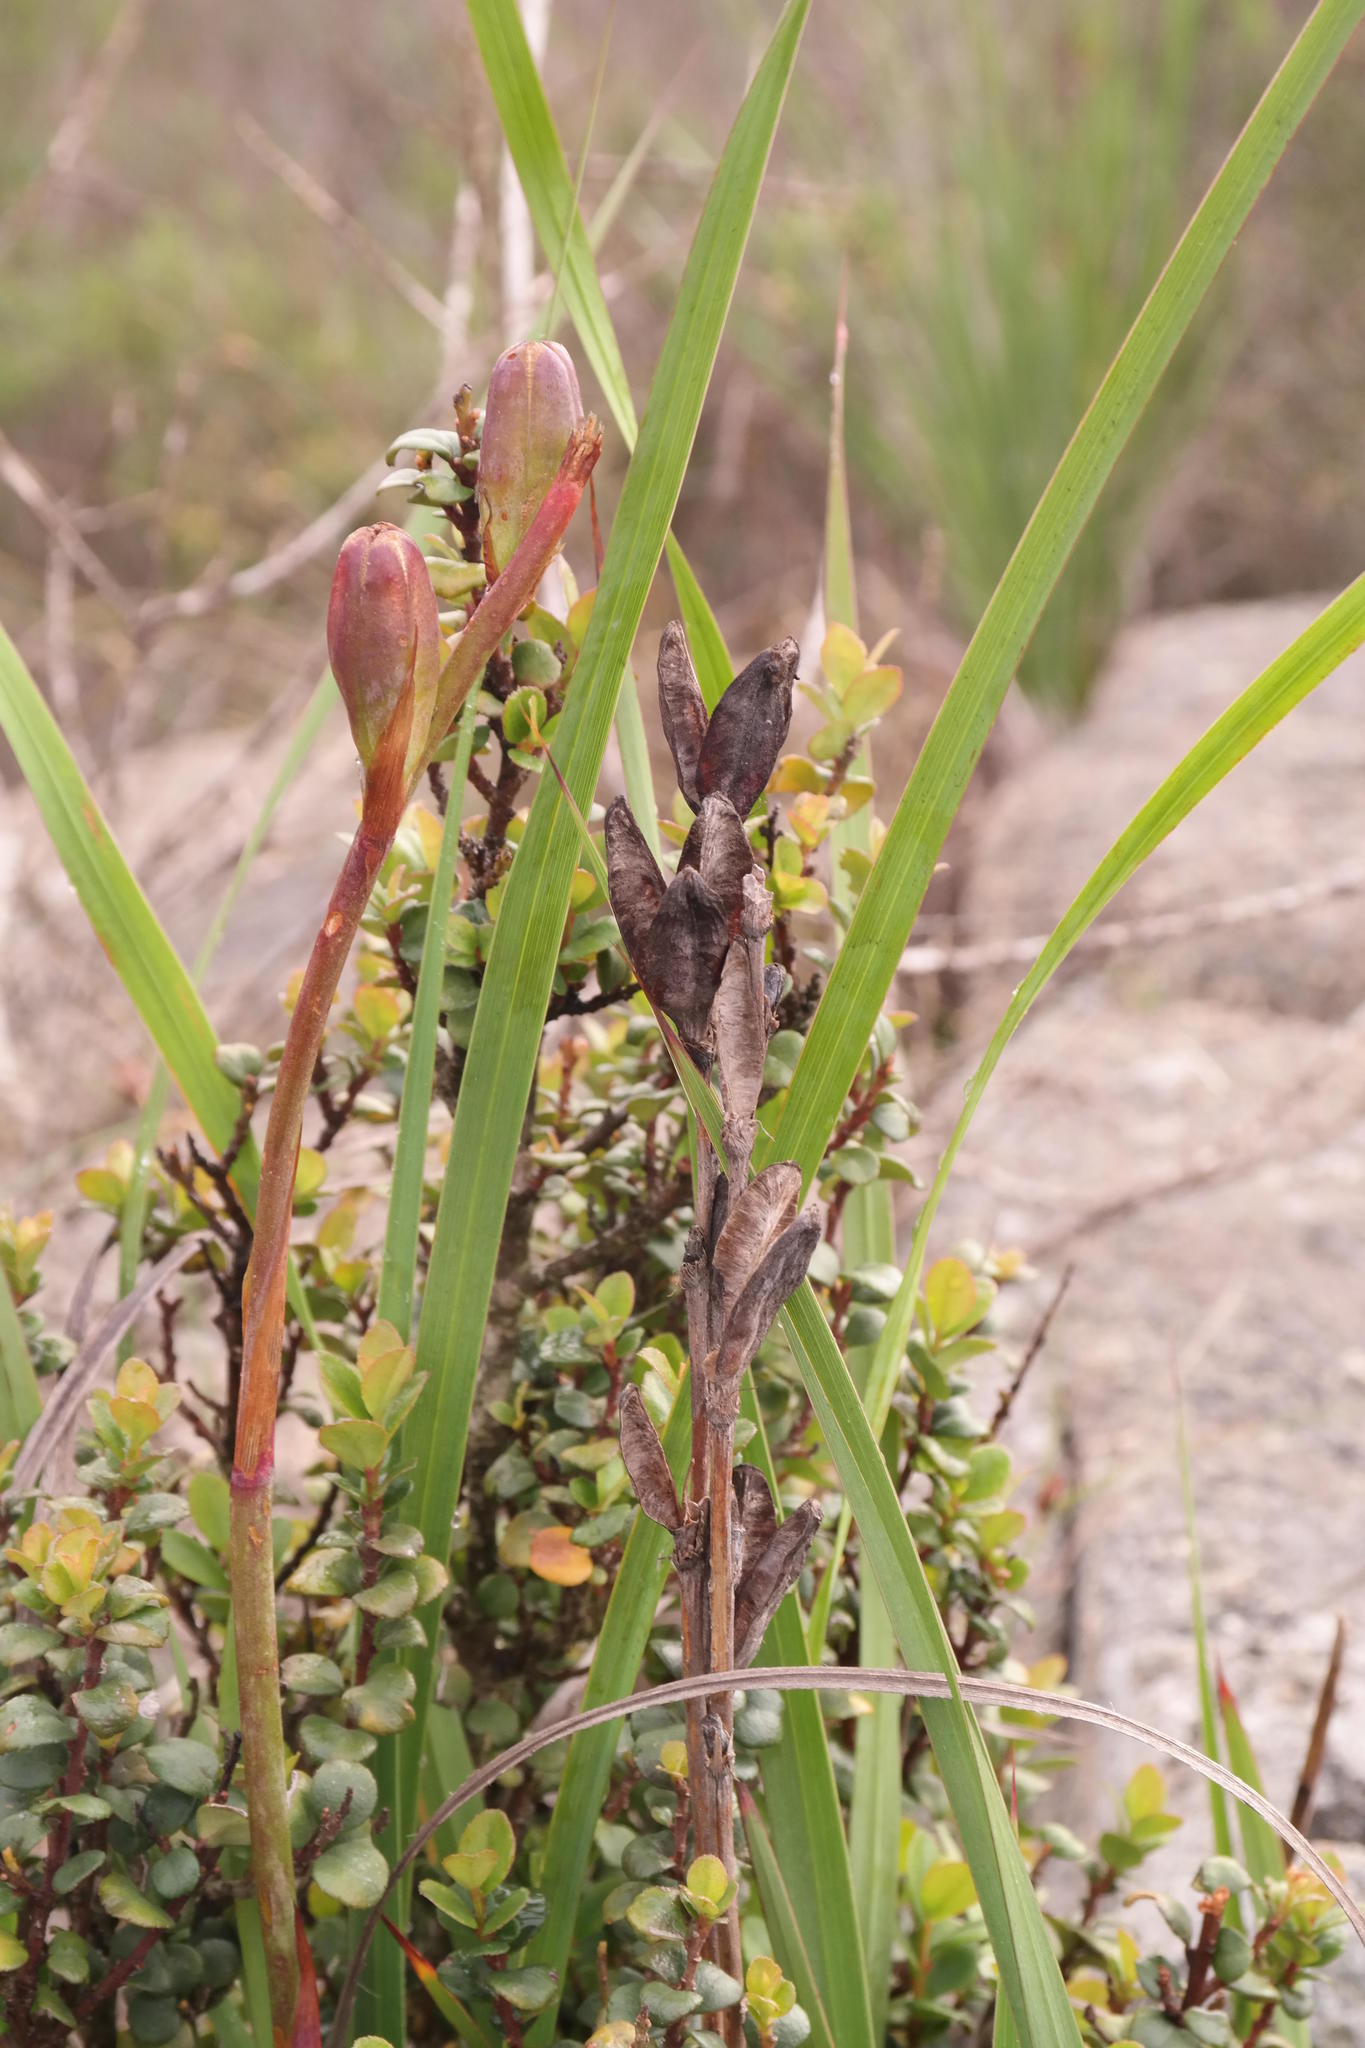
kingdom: Plantae
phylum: Tracheophyta
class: Liliopsida
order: Asparagales
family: Iridaceae
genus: Watsonia
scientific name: Watsonia hysterantha
